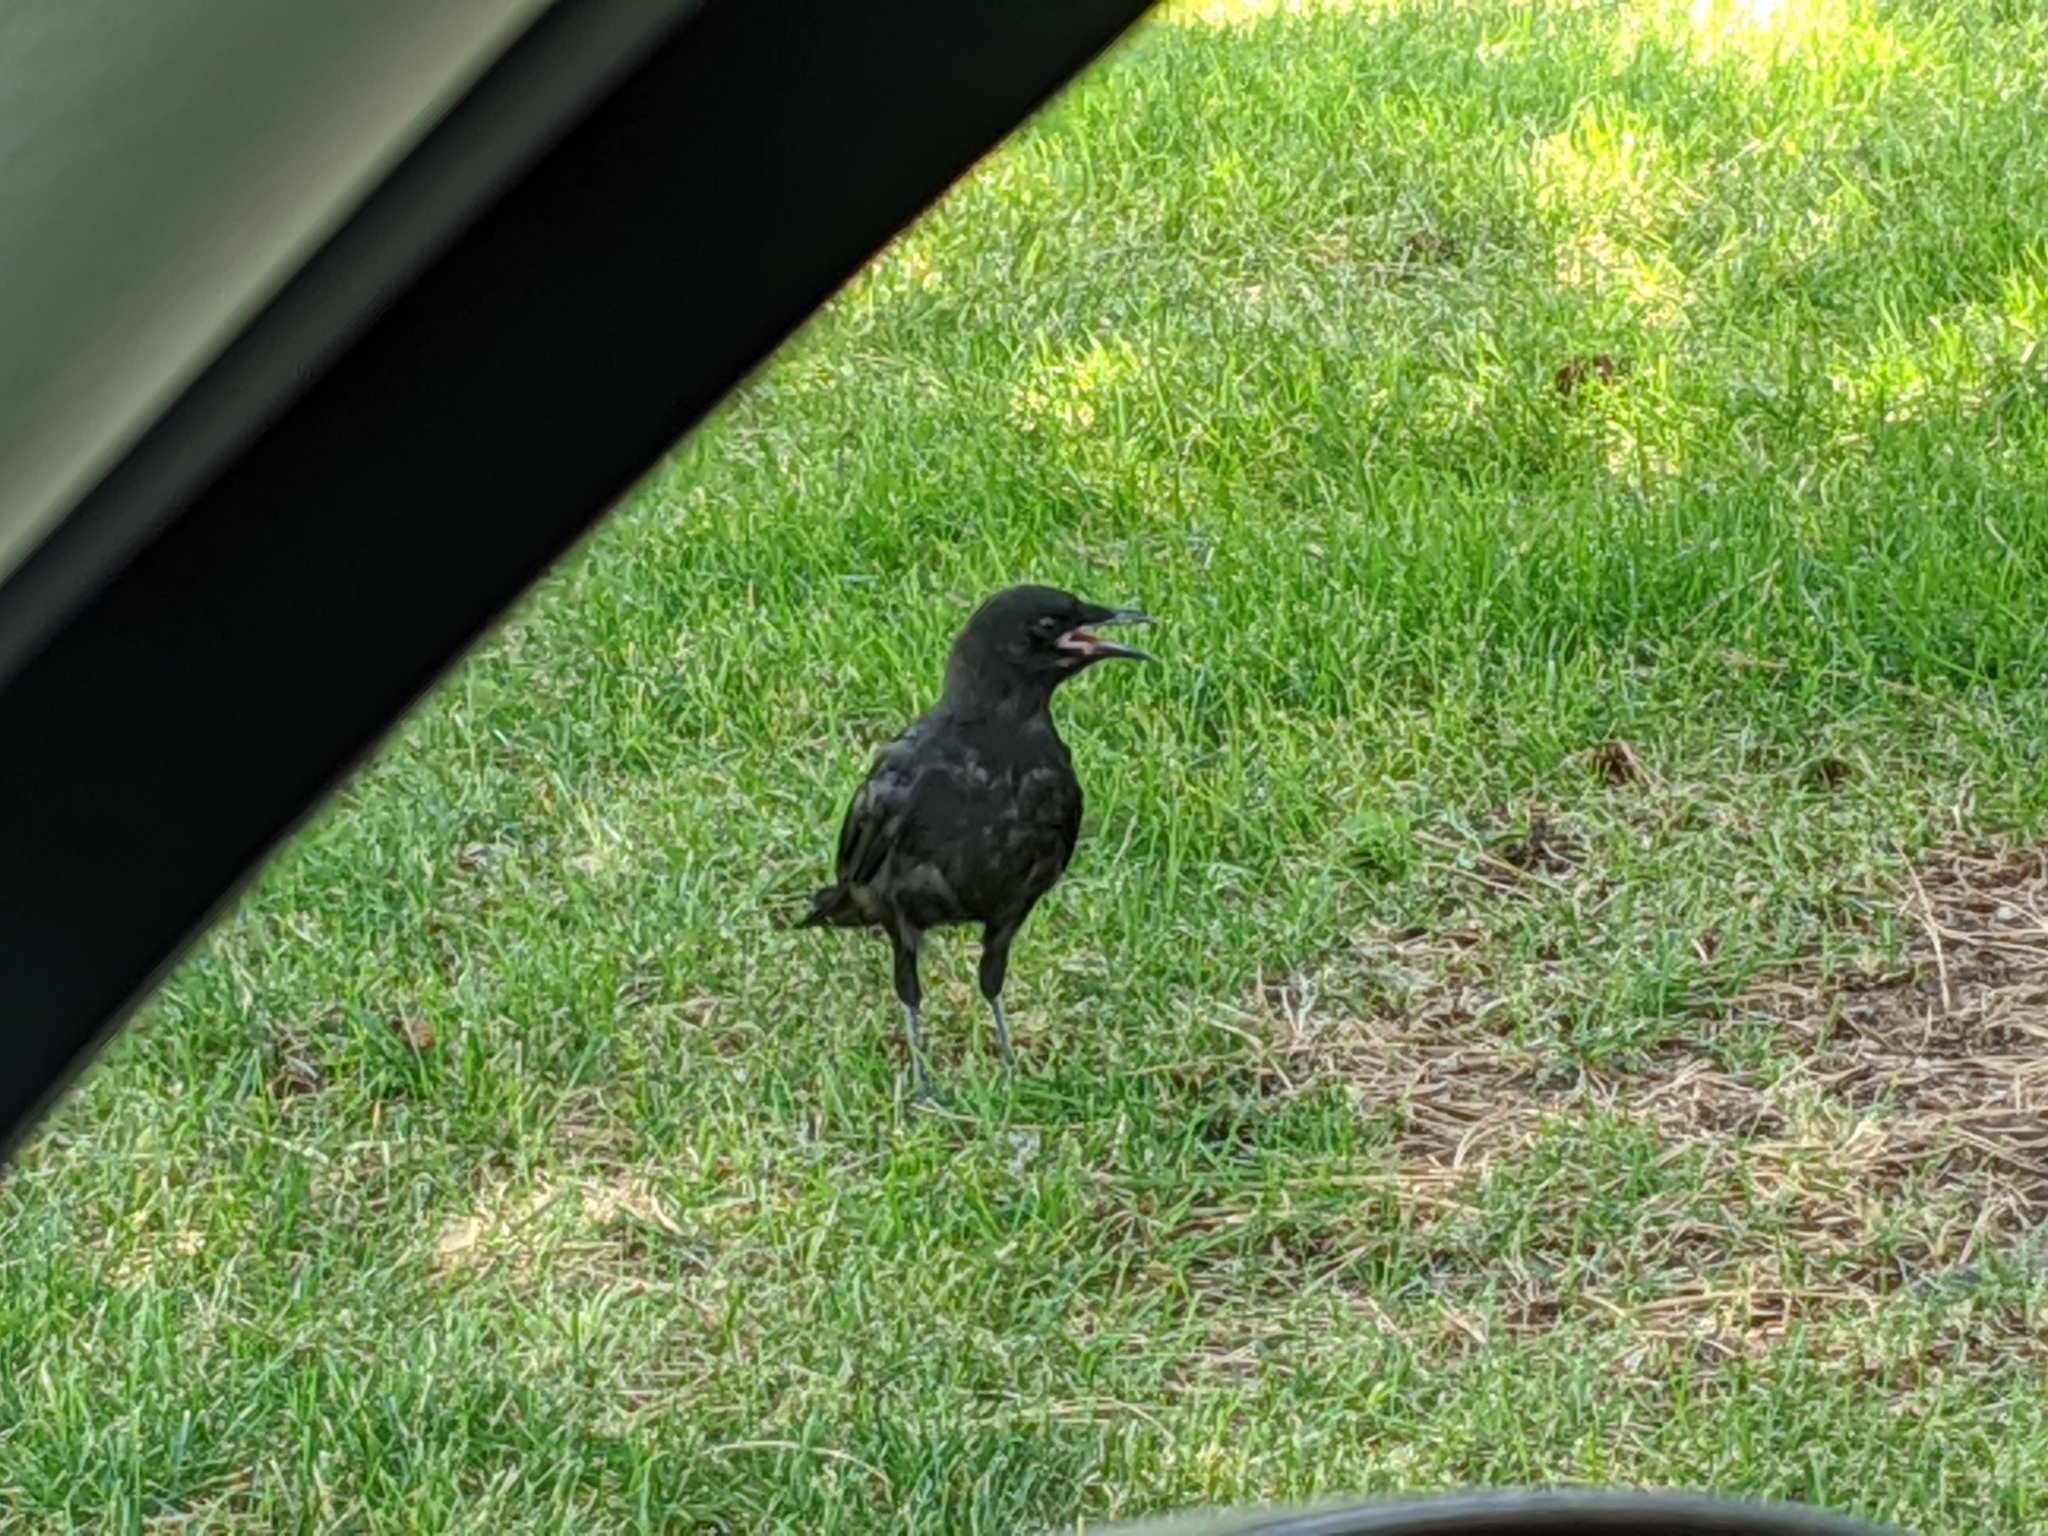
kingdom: Animalia
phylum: Chordata
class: Aves
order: Passeriformes
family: Corvidae
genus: Corvus
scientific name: Corvus brachyrhynchos
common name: American crow
